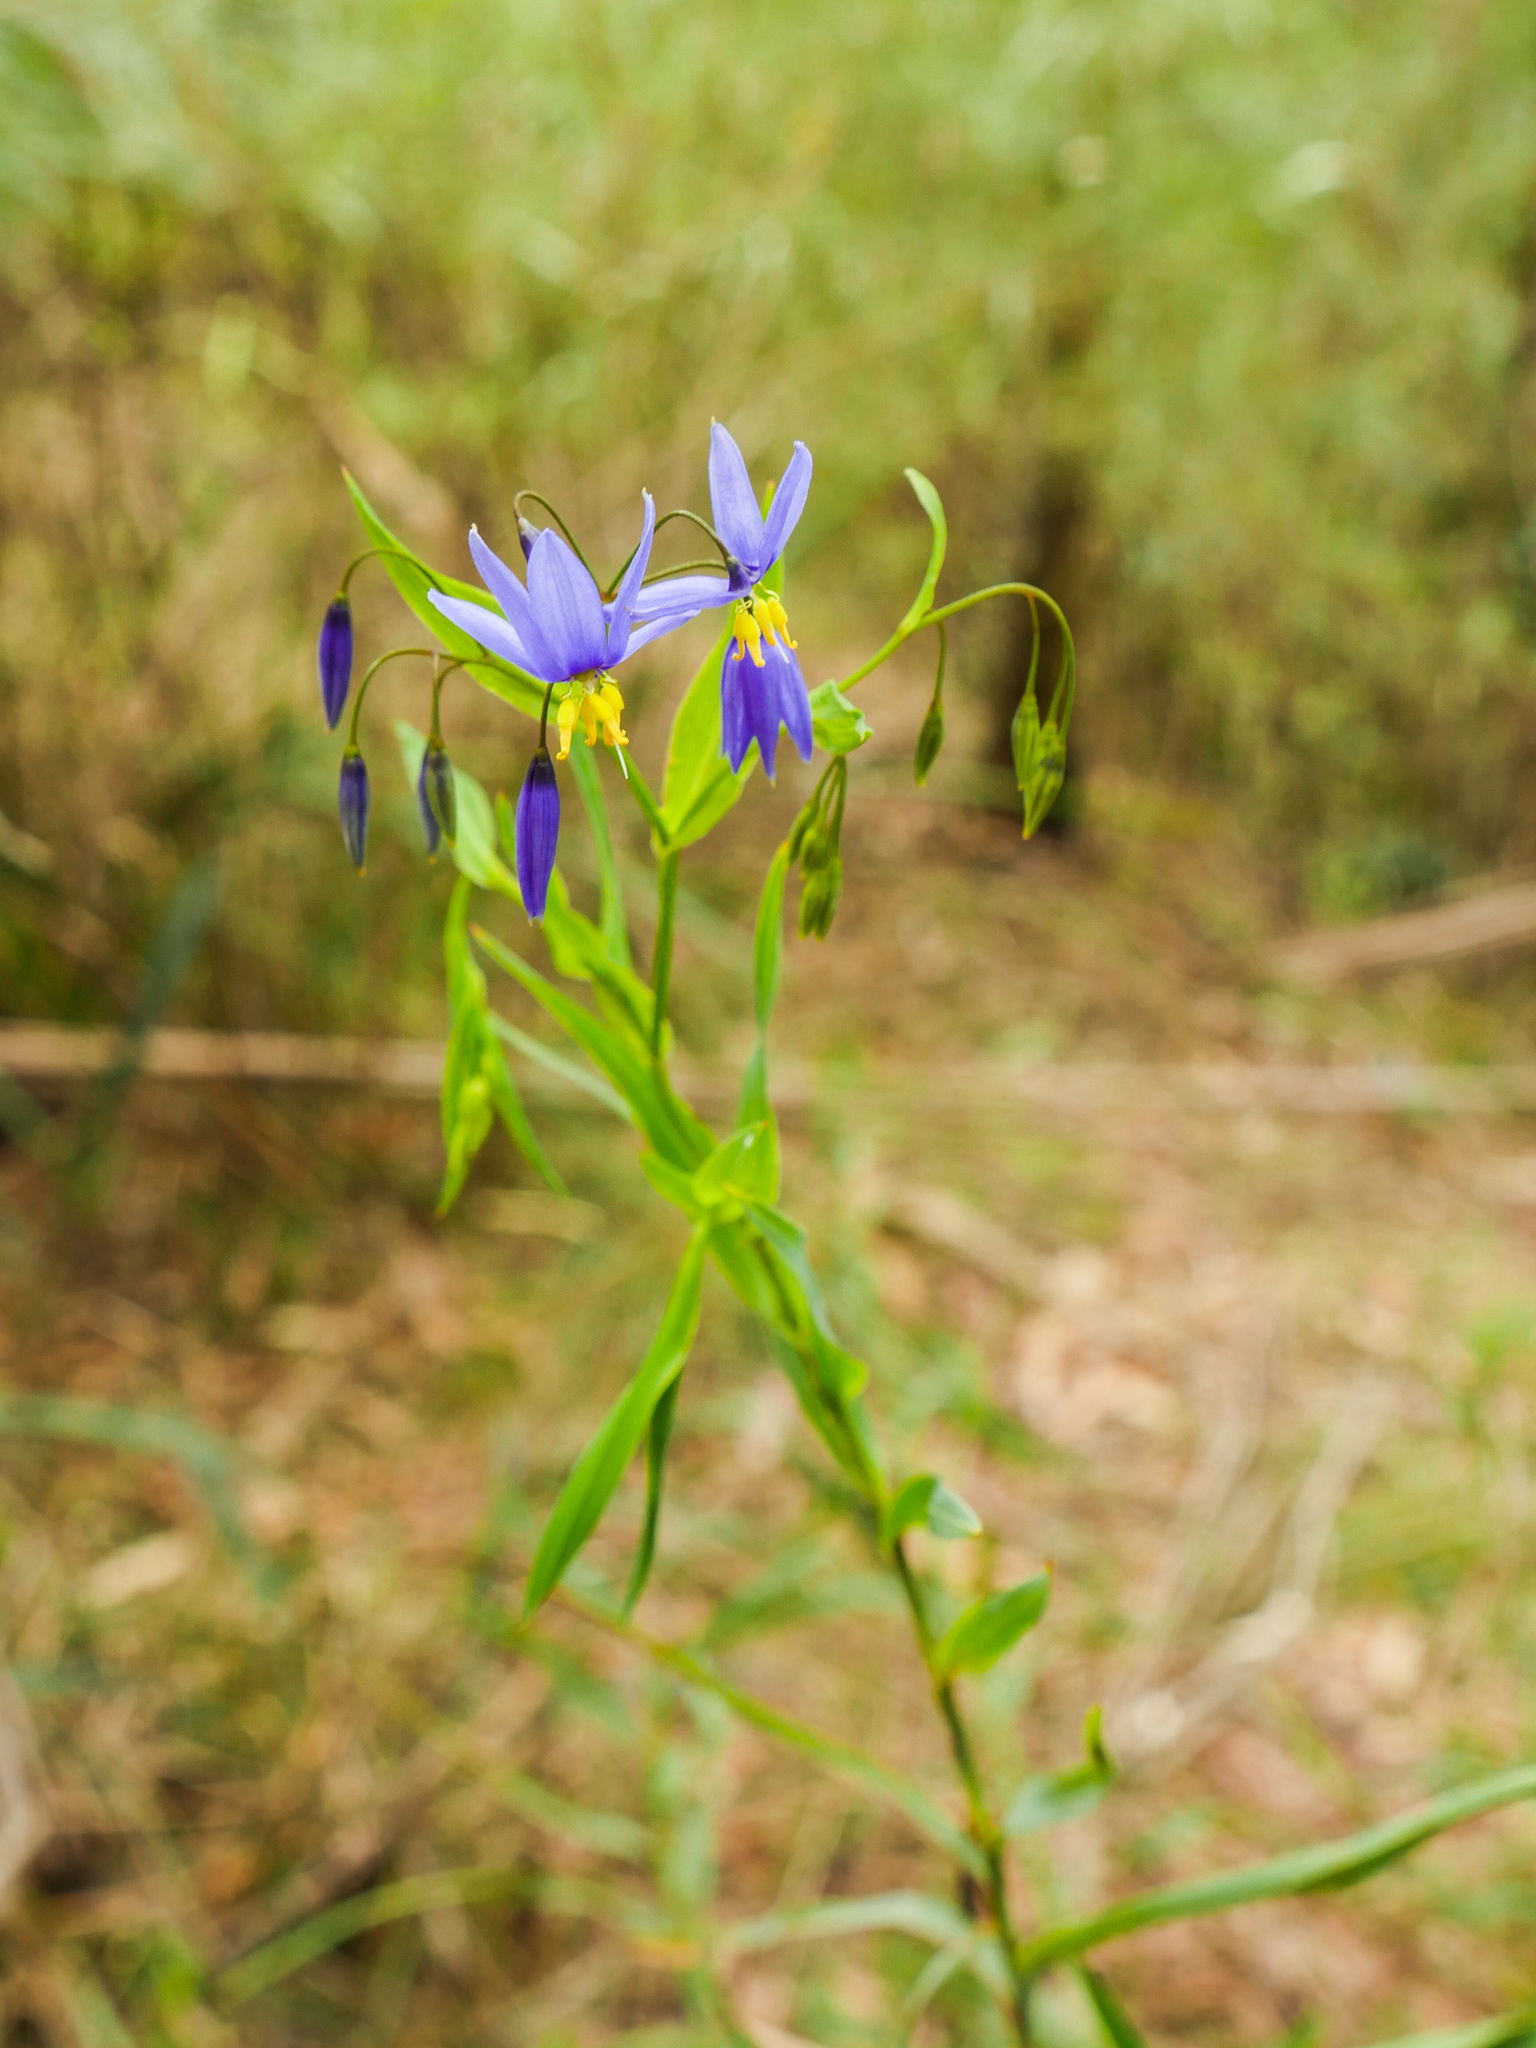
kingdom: Plantae
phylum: Tracheophyta
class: Liliopsida
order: Asparagales
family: Asphodelaceae
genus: Stypandra
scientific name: Stypandra glauca
